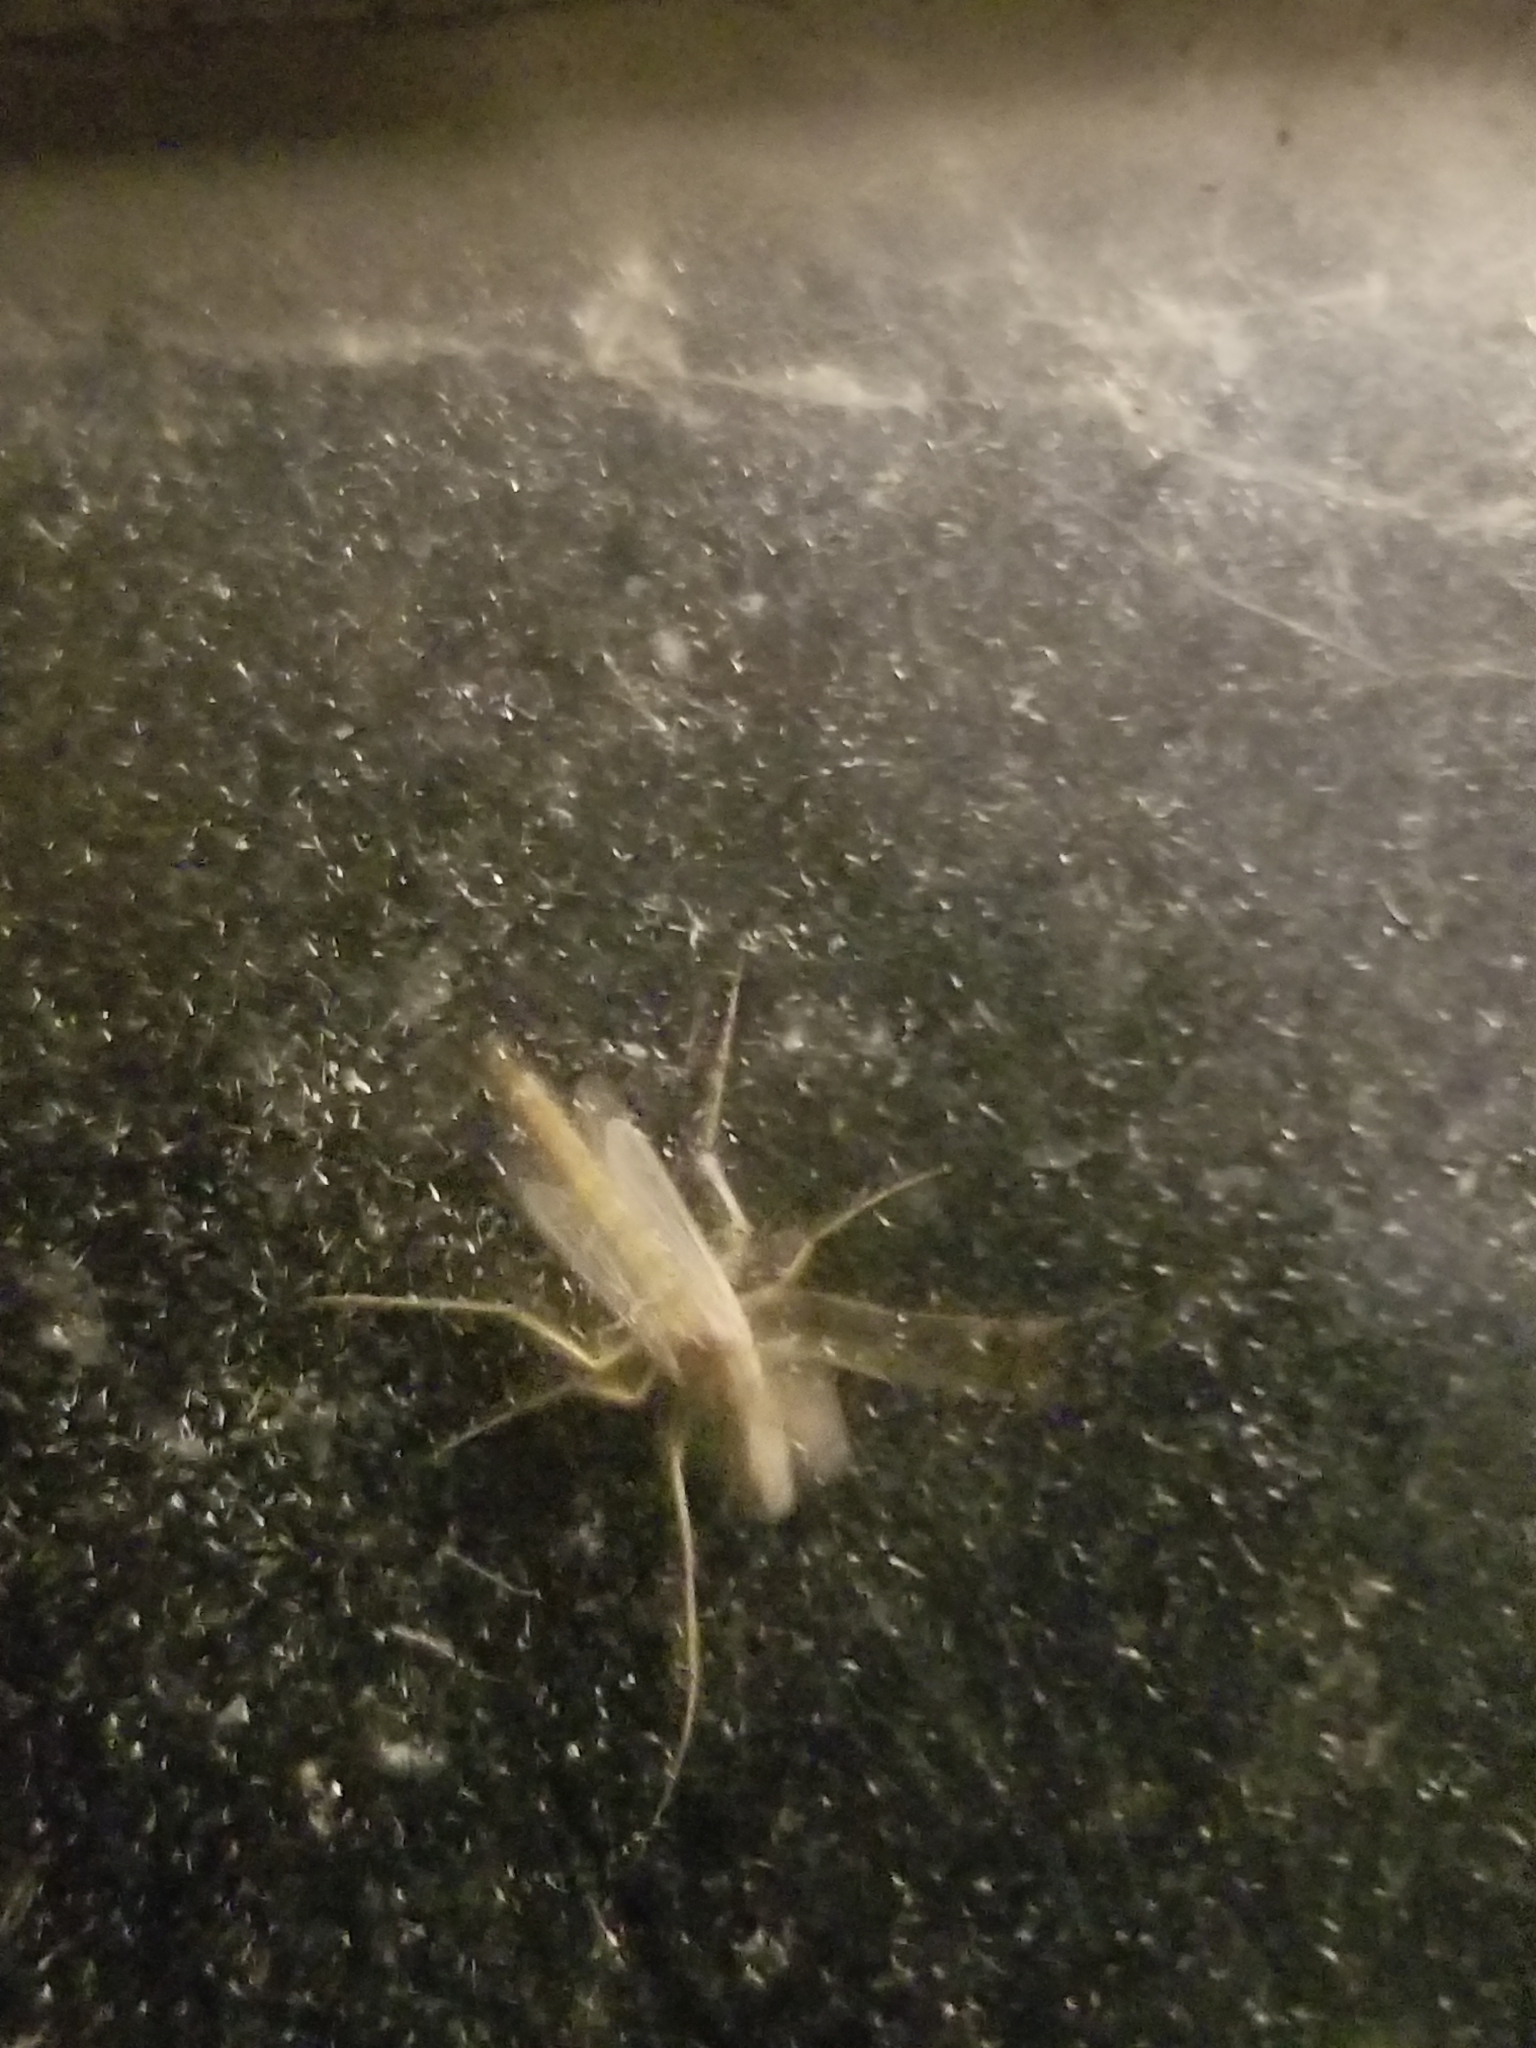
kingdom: Animalia
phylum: Arthropoda
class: Insecta
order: Diptera
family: Chironomidae
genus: Chironomus
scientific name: Chironomus
